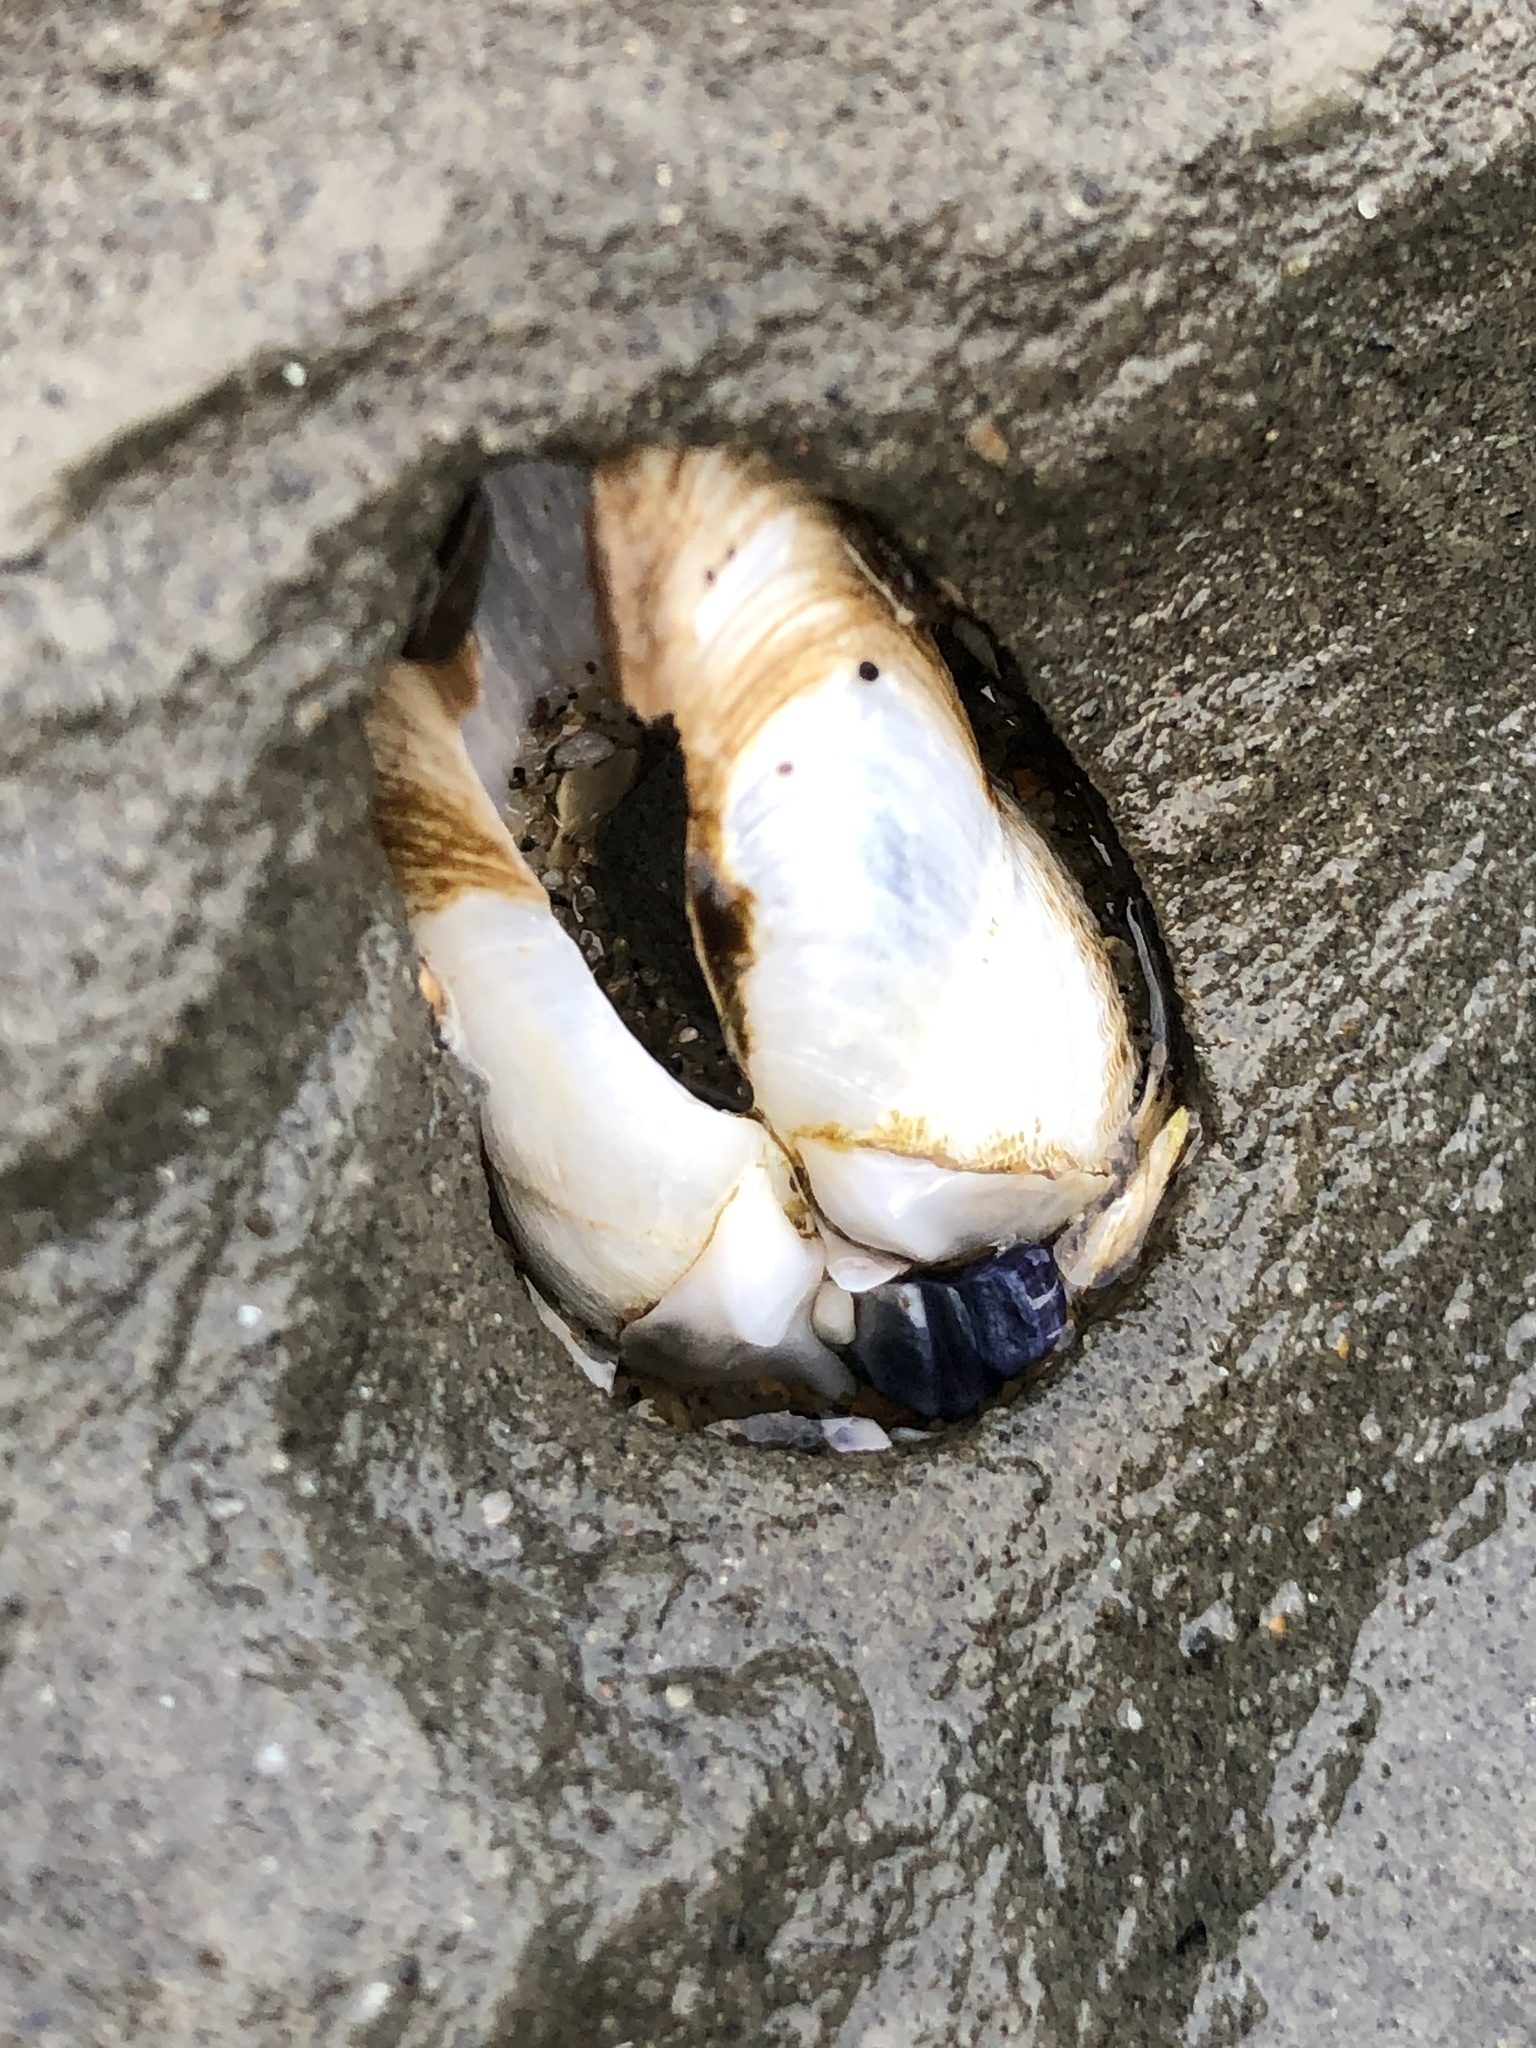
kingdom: Animalia
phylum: Mollusca
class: Bivalvia
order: Myida
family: Pholadidae
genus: Parapholas
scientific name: Parapholas californica
